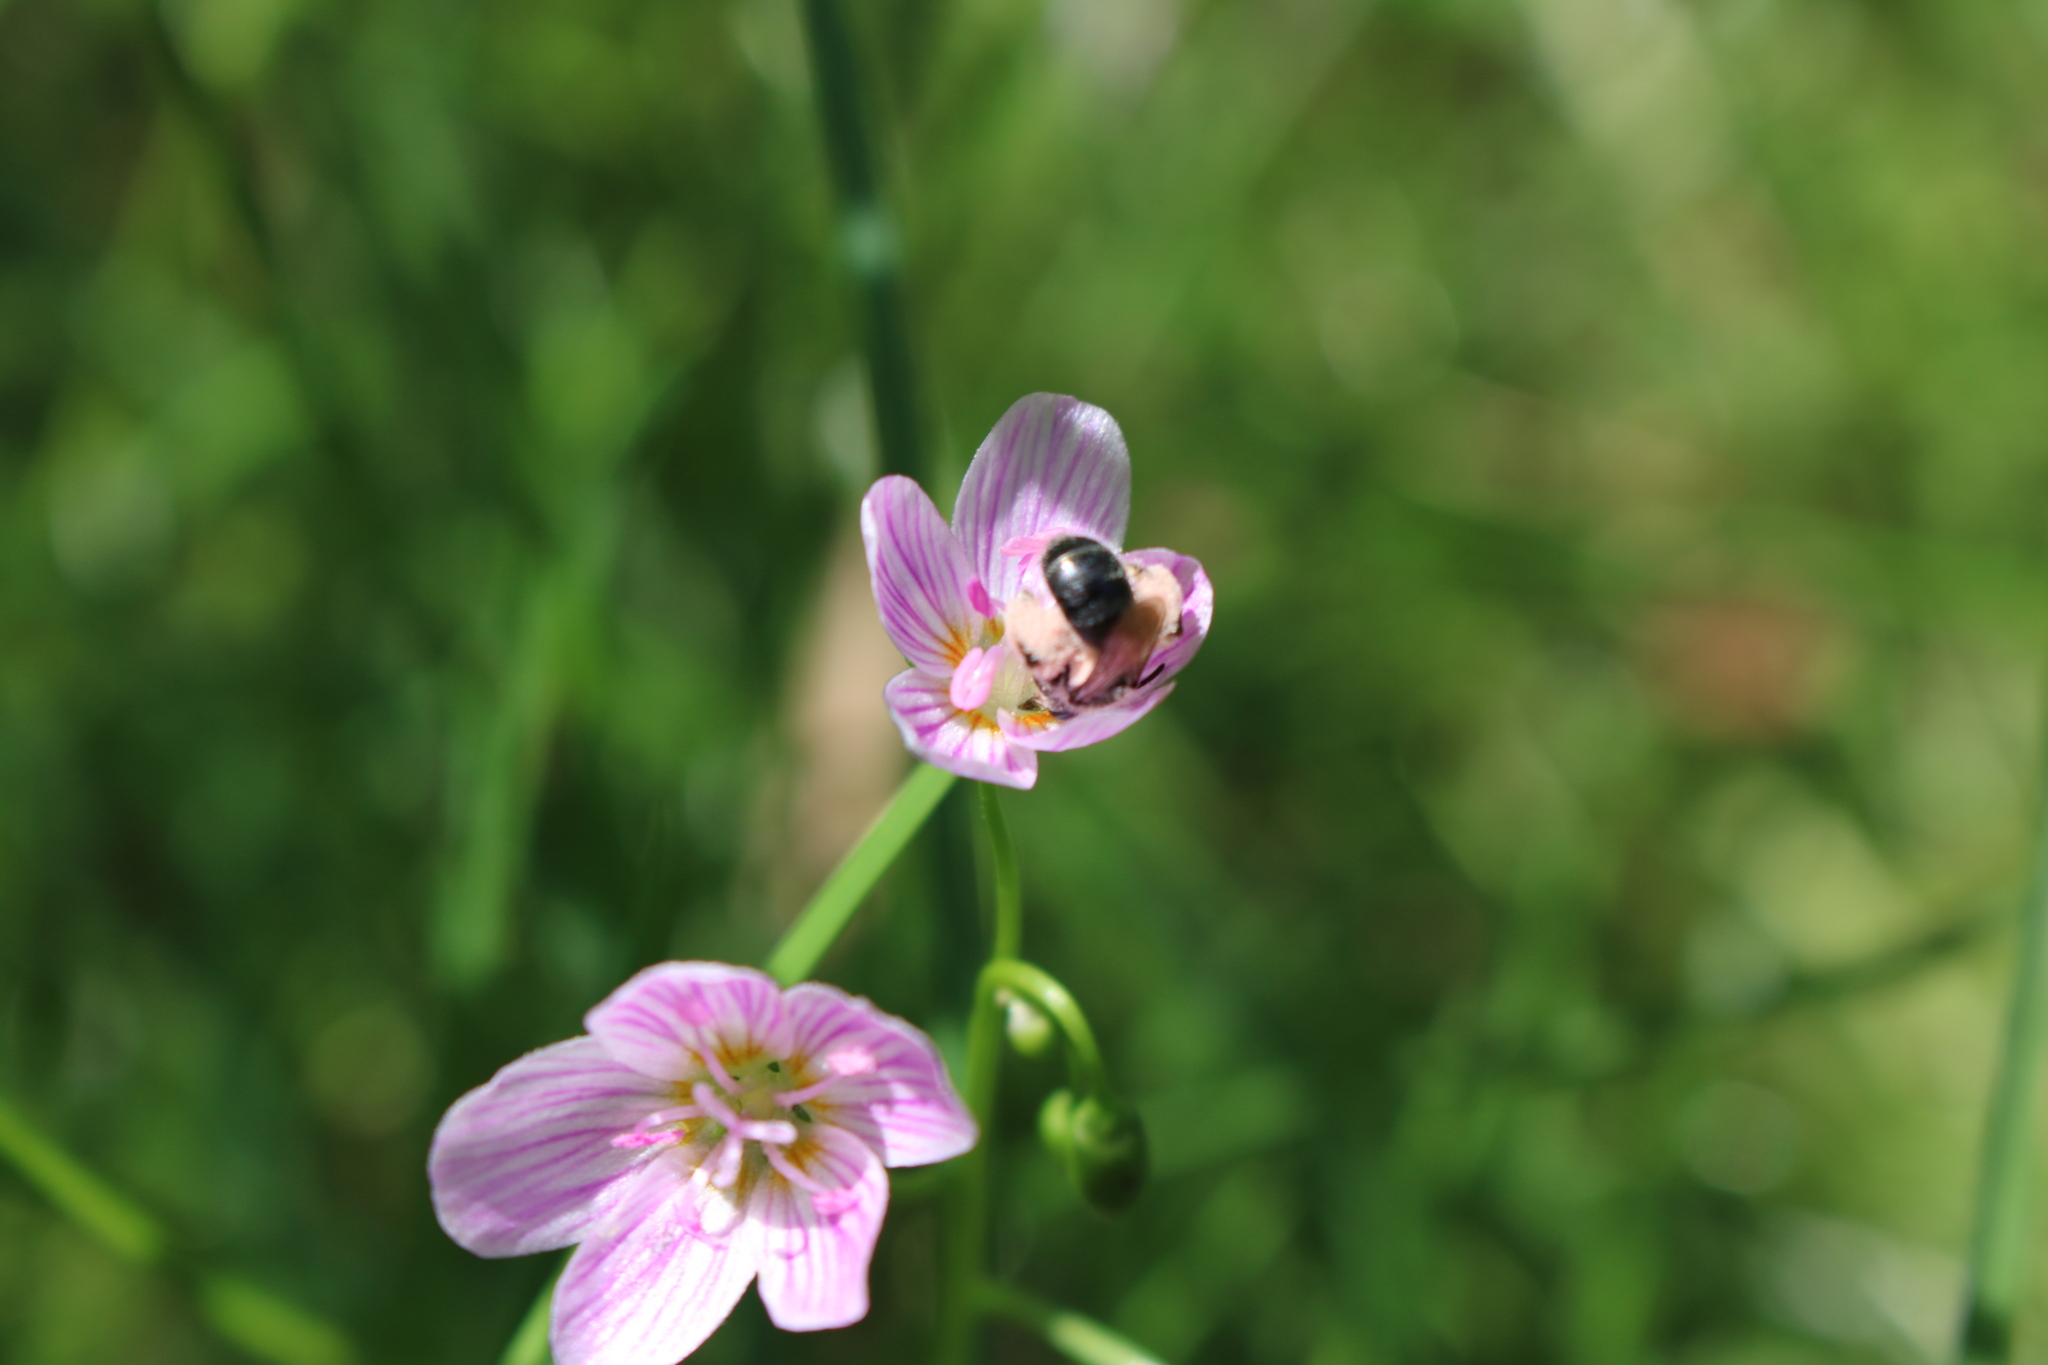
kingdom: Animalia
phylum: Arthropoda
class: Insecta
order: Hymenoptera
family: Andrenidae
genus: Andrena
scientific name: Andrena erigeniae
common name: Spring beauty miner
